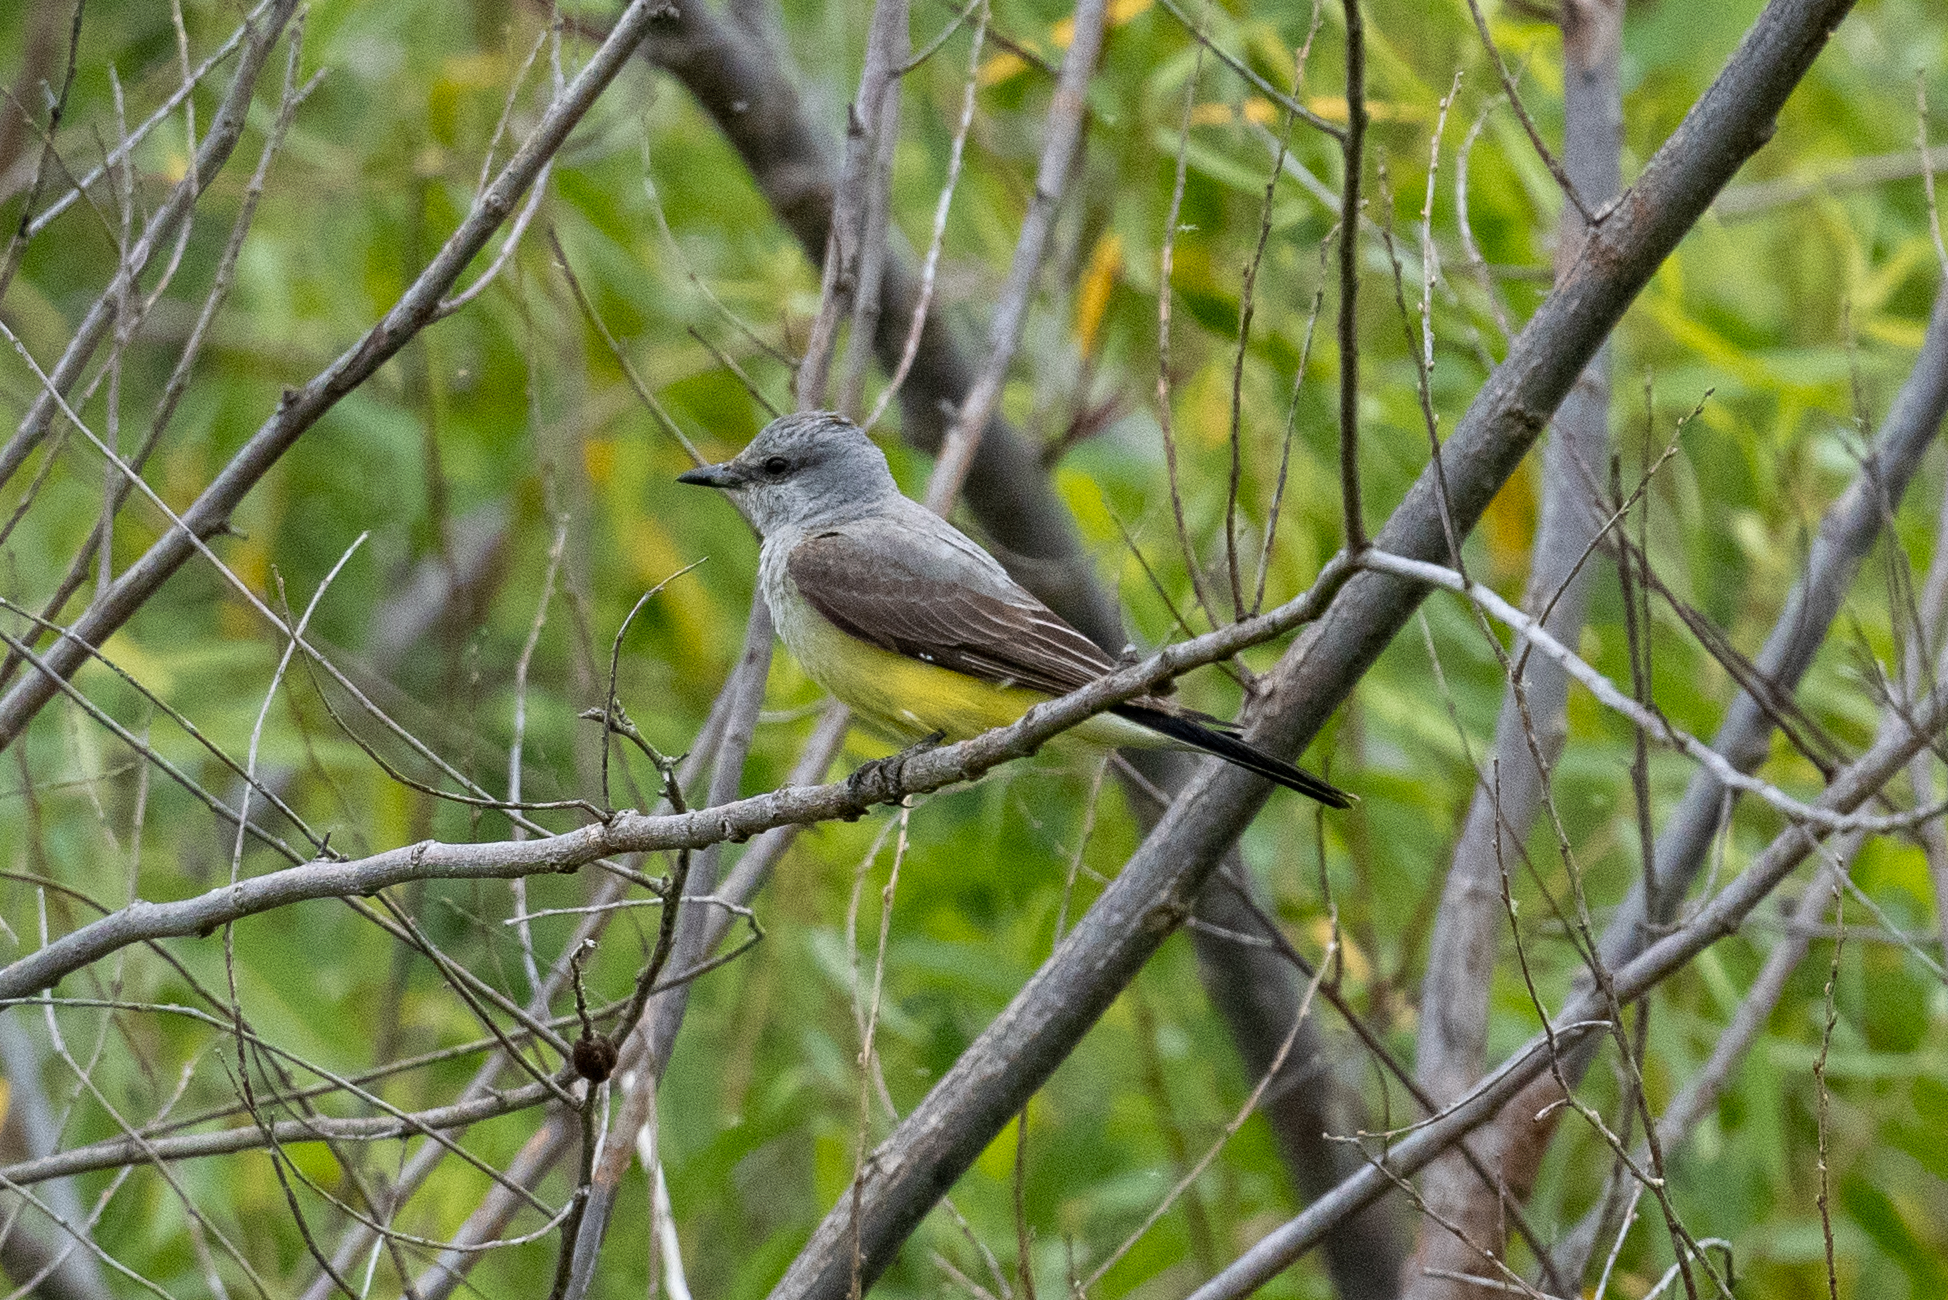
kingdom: Animalia
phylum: Chordata
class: Aves
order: Passeriformes
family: Tyrannidae
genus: Tyrannus
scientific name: Tyrannus verticalis
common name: Western kingbird
